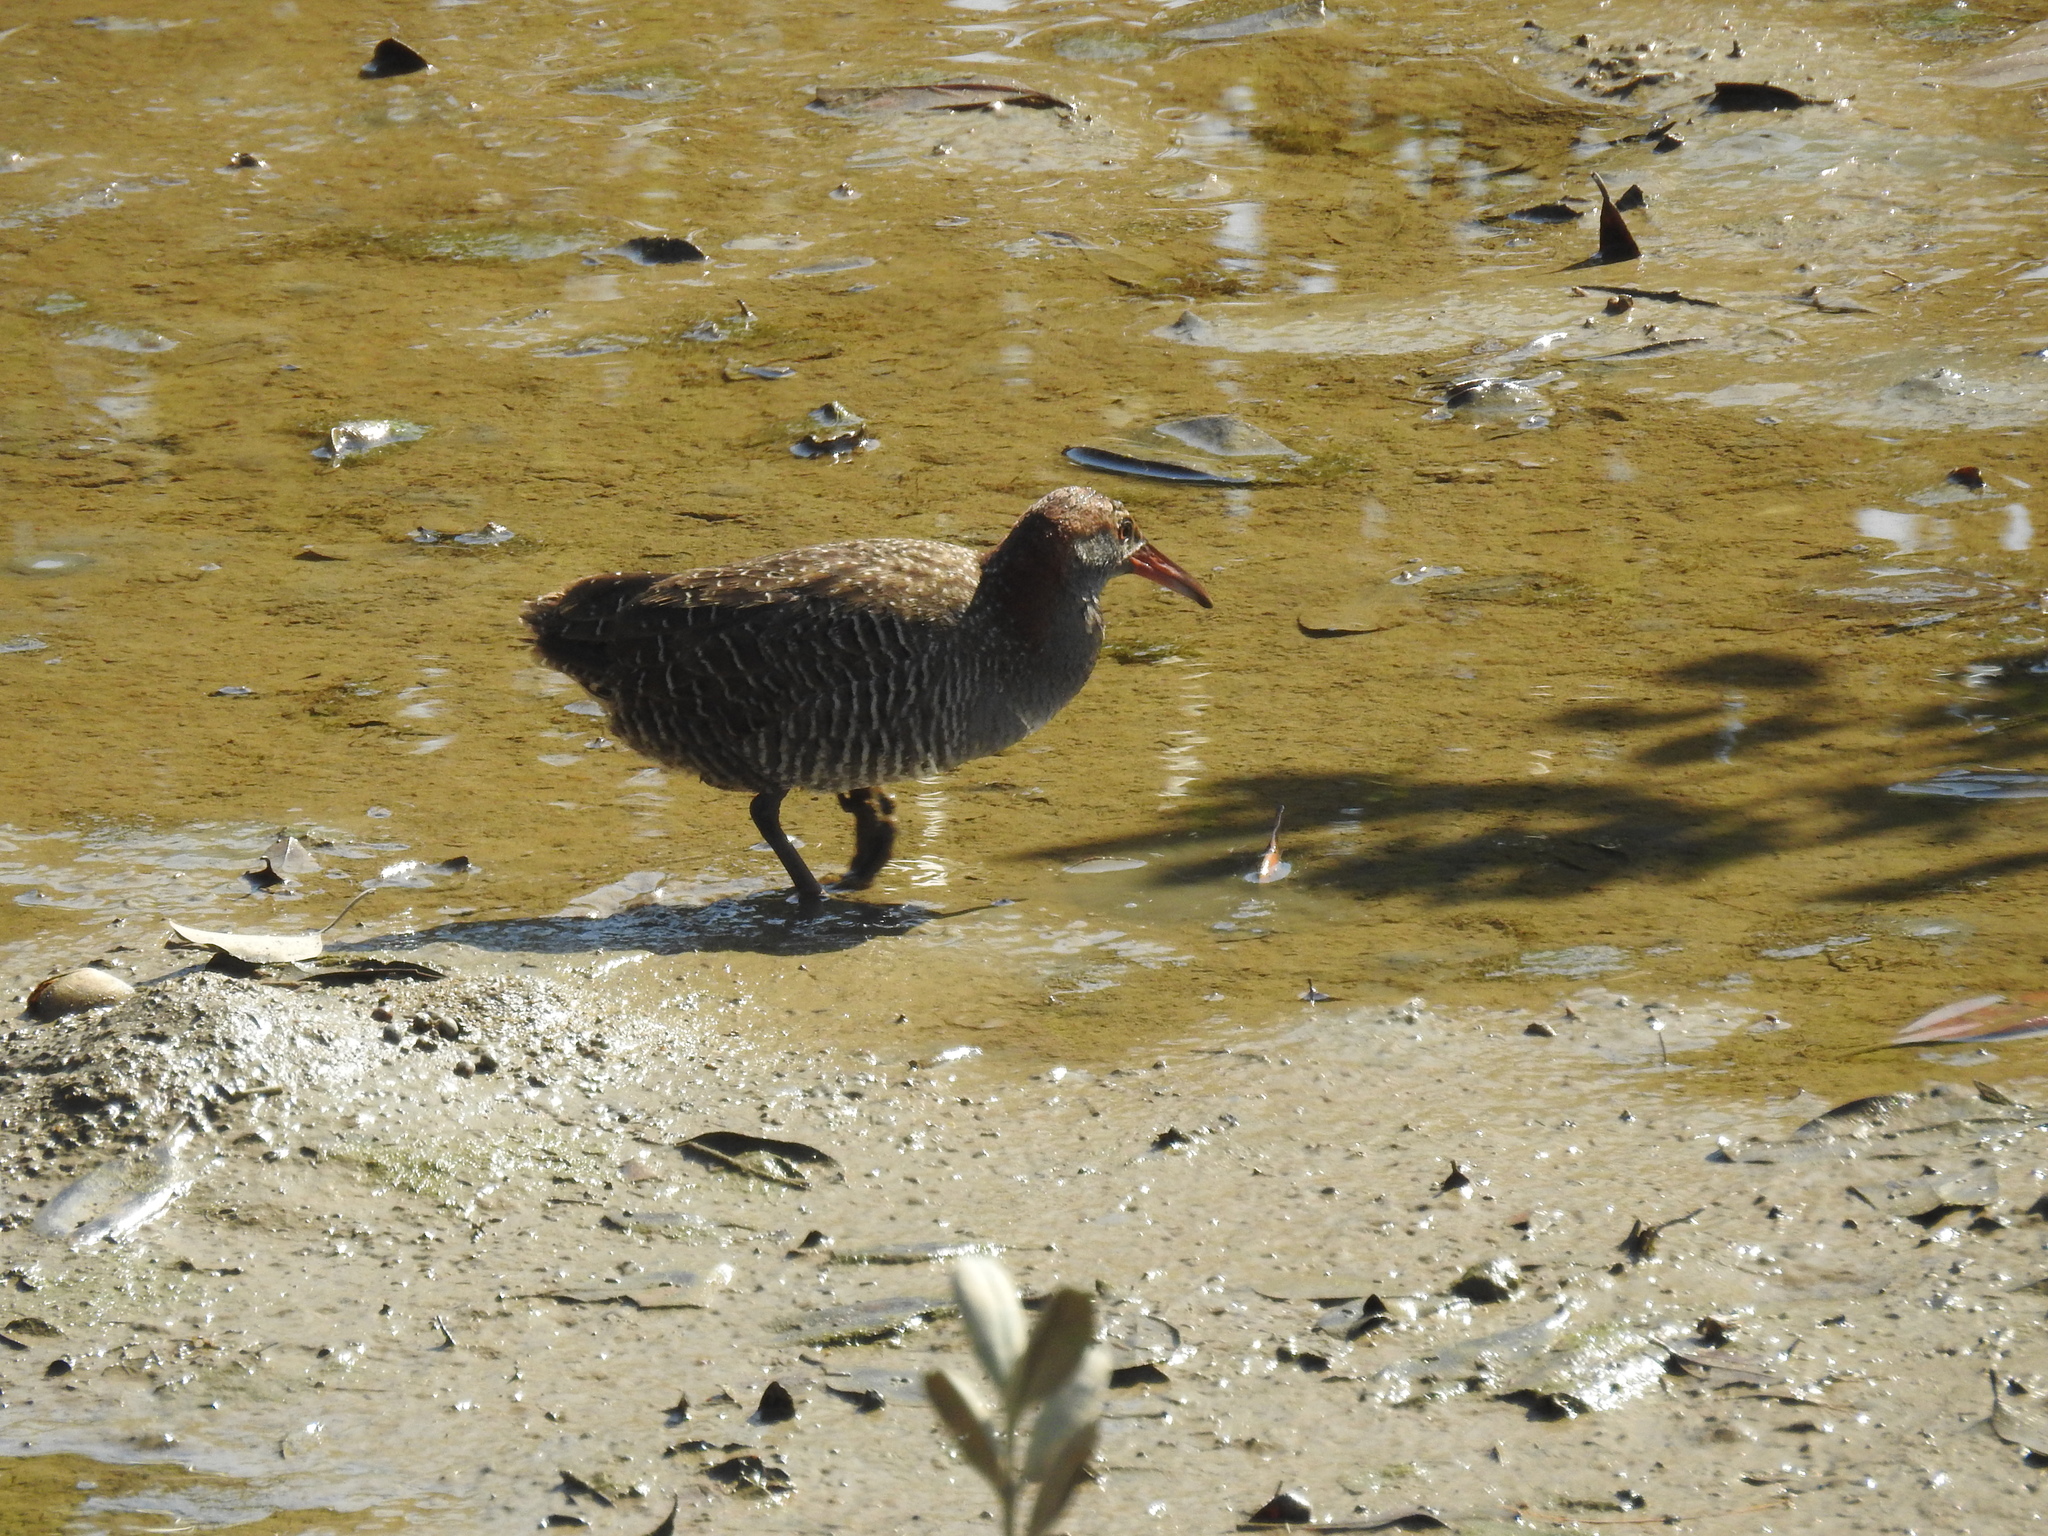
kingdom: Animalia
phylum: Chordata
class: Aves
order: Gruiformes
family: Rallidae
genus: Gallirallus
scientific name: Gallirallus striatus
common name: Slaty-breasted rail
